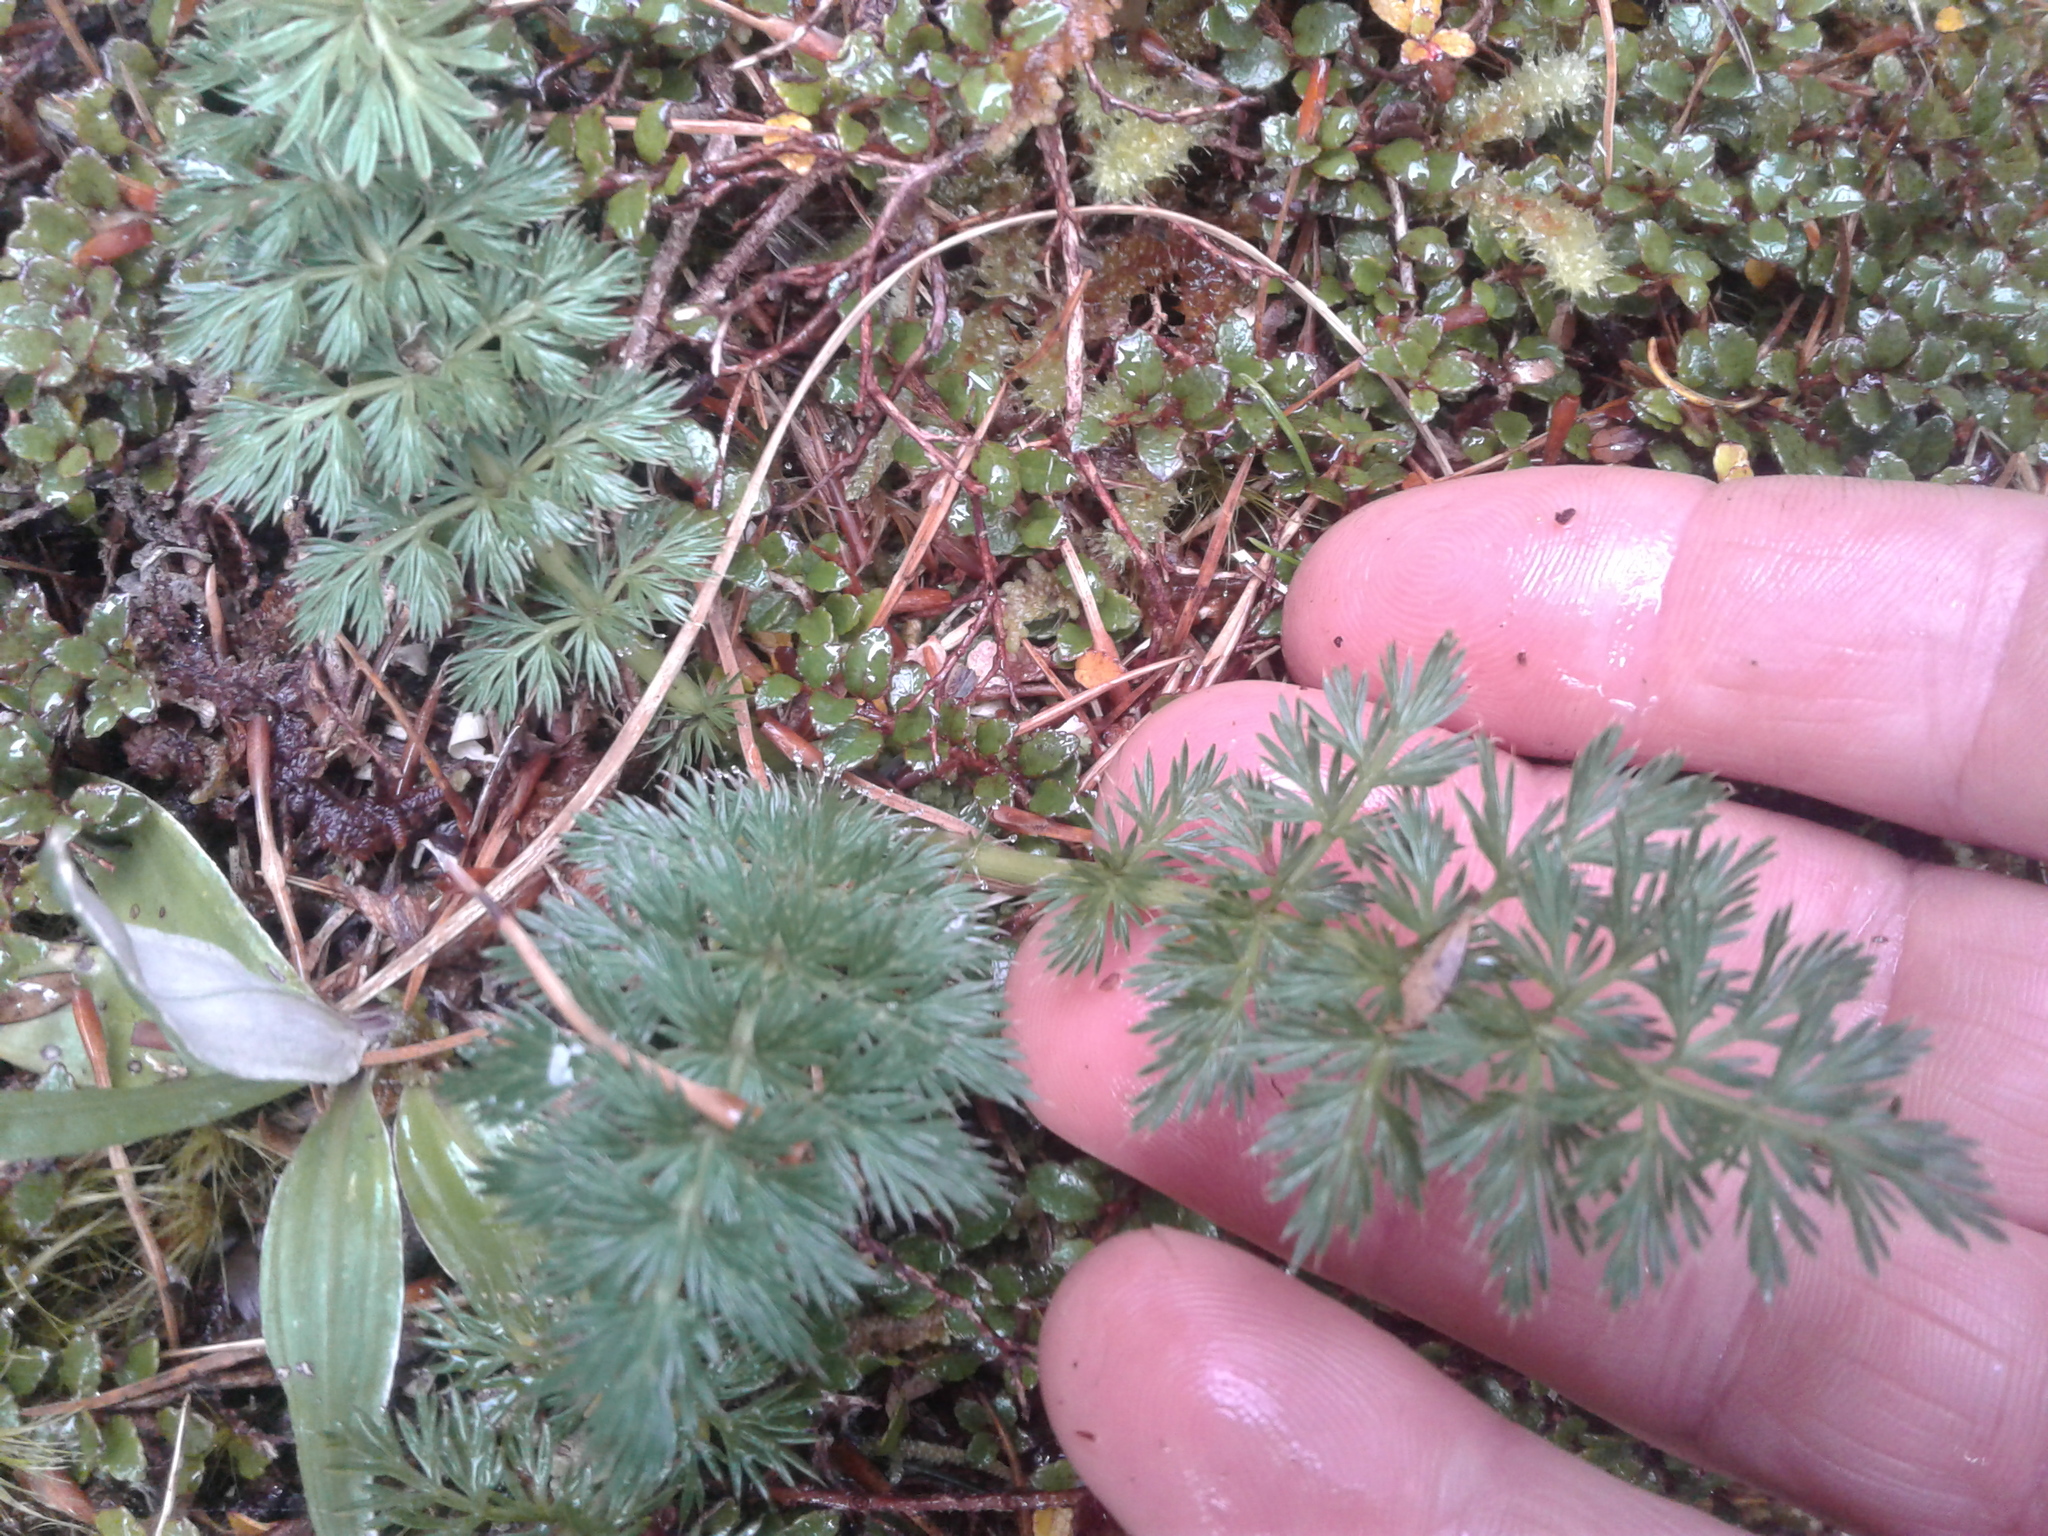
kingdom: Plantae
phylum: Tracheophyta
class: Magnoliopsida
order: Apiales
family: Apiaceae
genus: Anisotome
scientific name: Anisotome haastii
